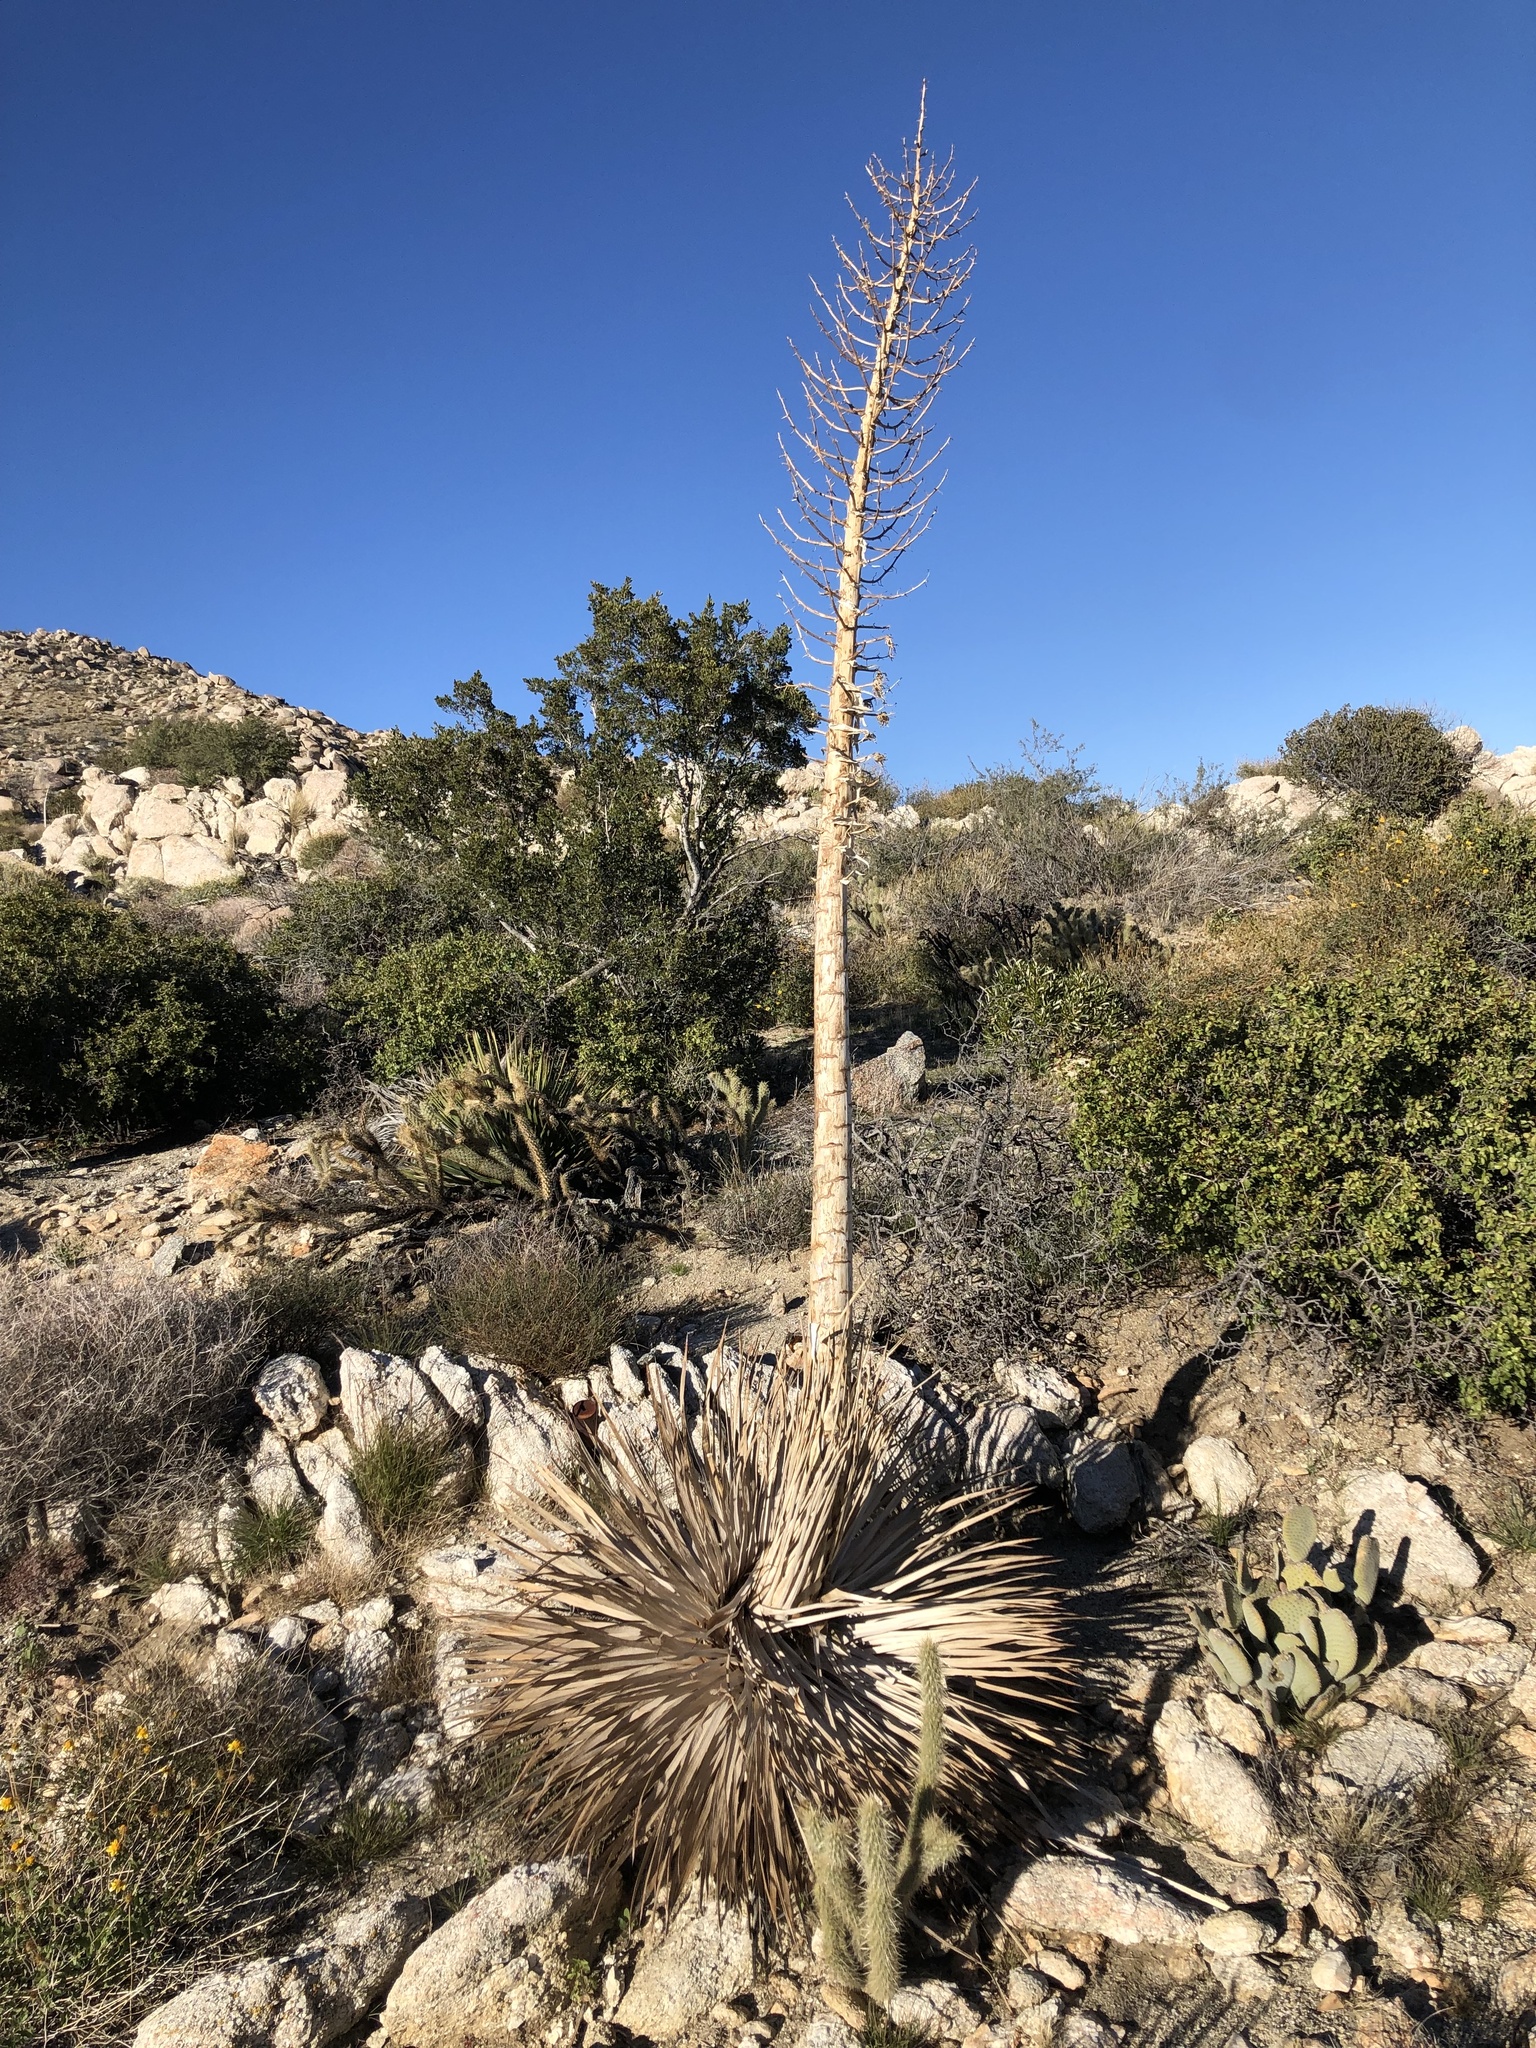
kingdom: Plantae
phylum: Tracheophyta
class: Liliopsida
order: Asparagales
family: Asparagaceae
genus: Hesperoyucca
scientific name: Hesperoyucca whipplei
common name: Our lord's-candle
